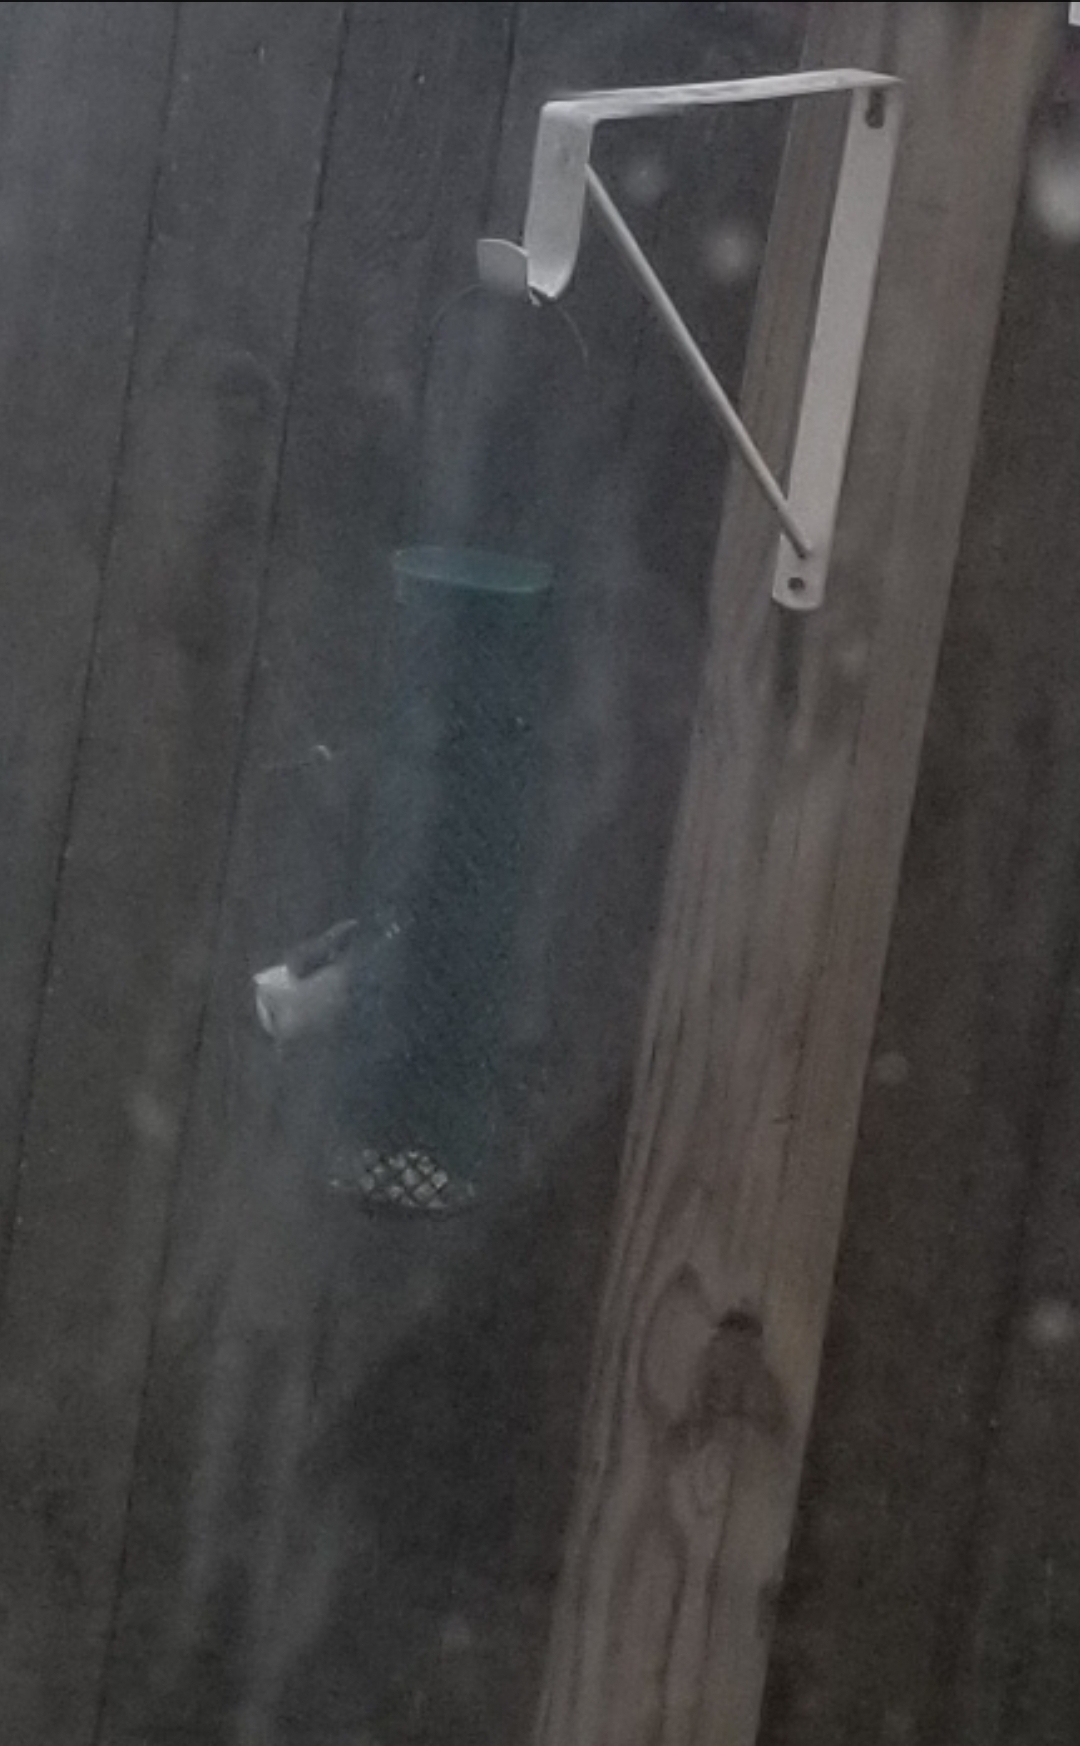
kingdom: Animalia
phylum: Chordata
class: Aves
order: Passeriformes
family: Sittidae
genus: Sitta
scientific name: Sitta carolinensis
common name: White-breasted nuthatch
